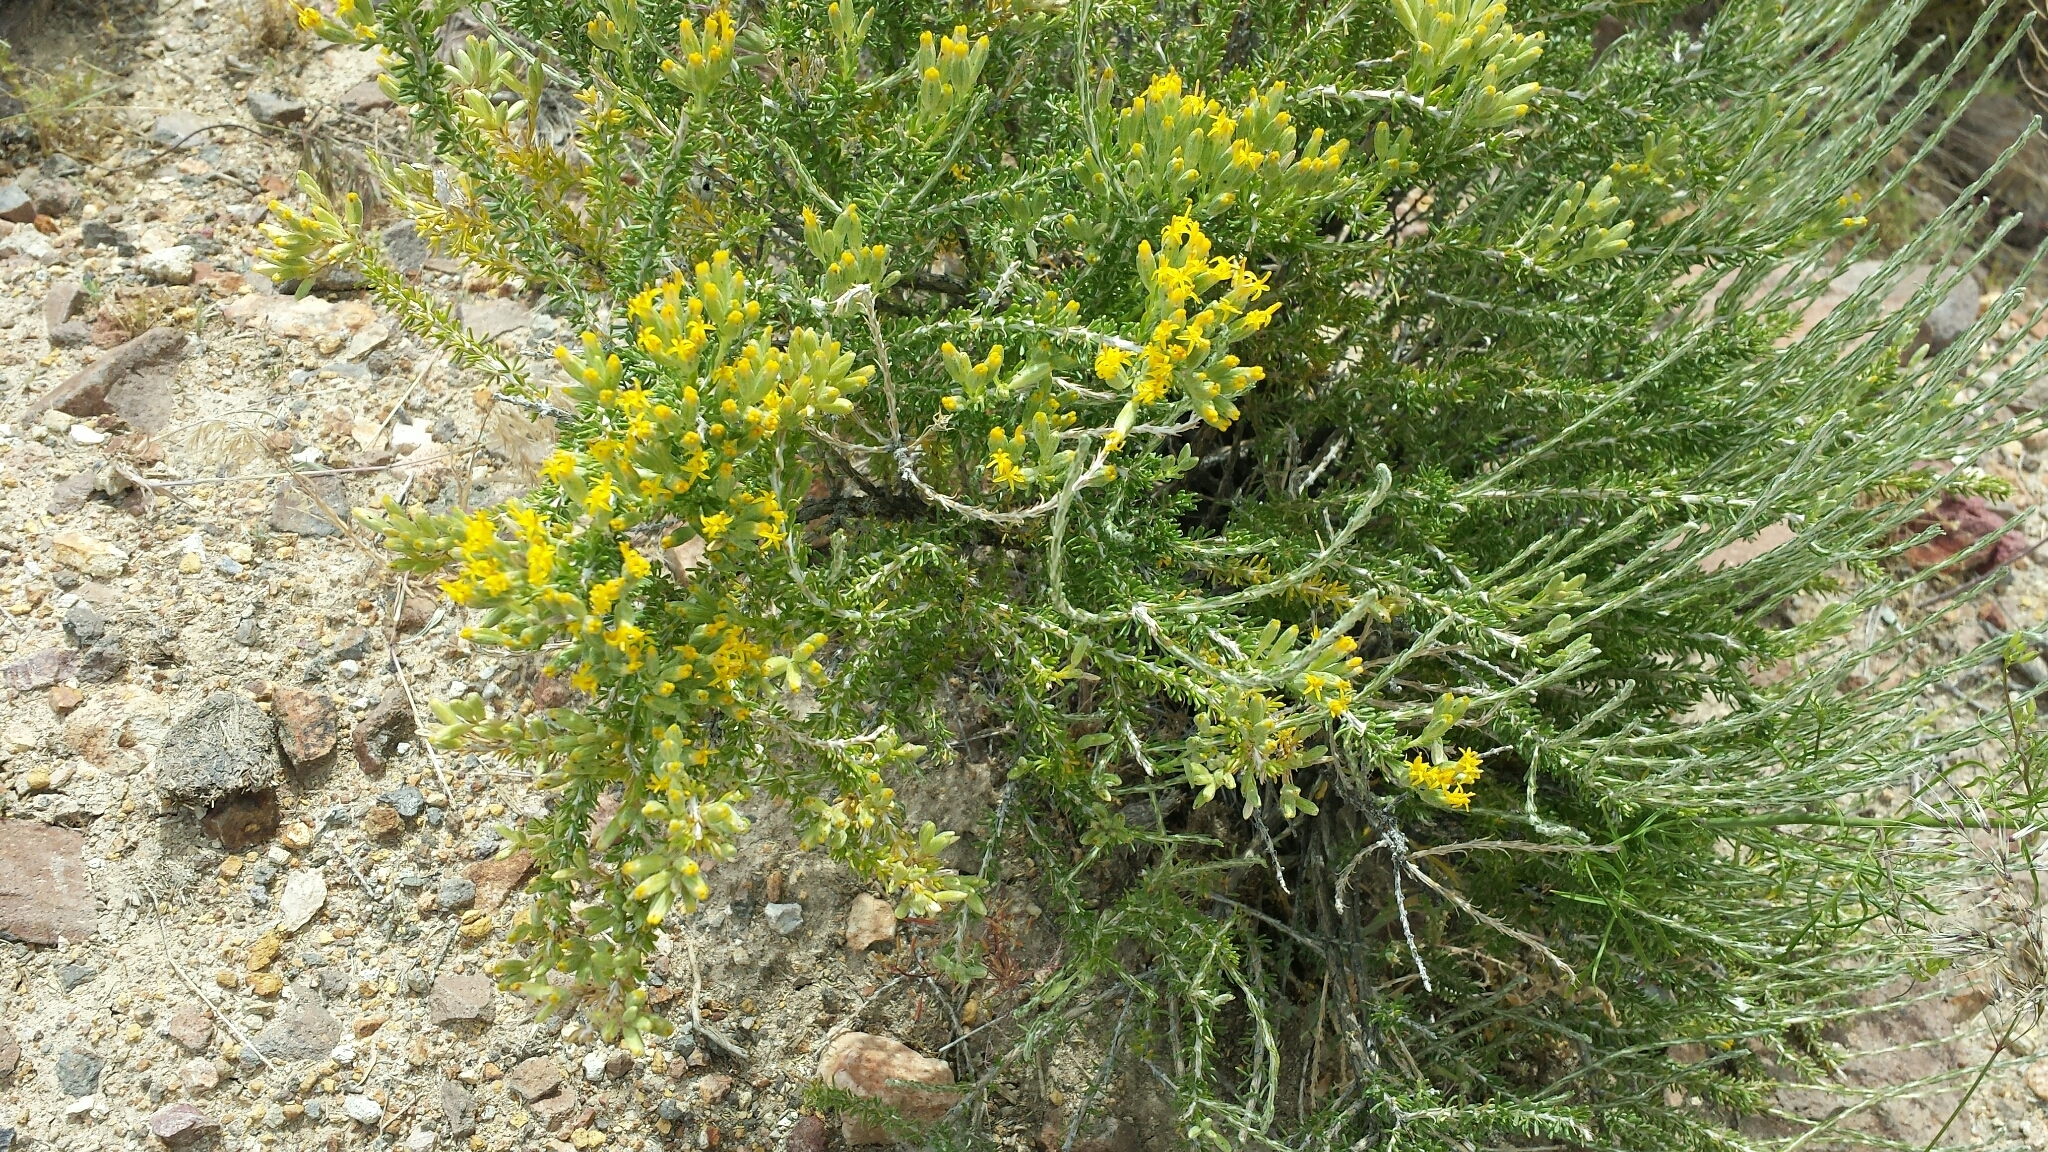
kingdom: Plantae
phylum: Tracheophyta
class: Magnoliopsida
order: Asterales
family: Asteraceae
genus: Tetradymia
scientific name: Tetradymia glabrata
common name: Smooth tetradymia
